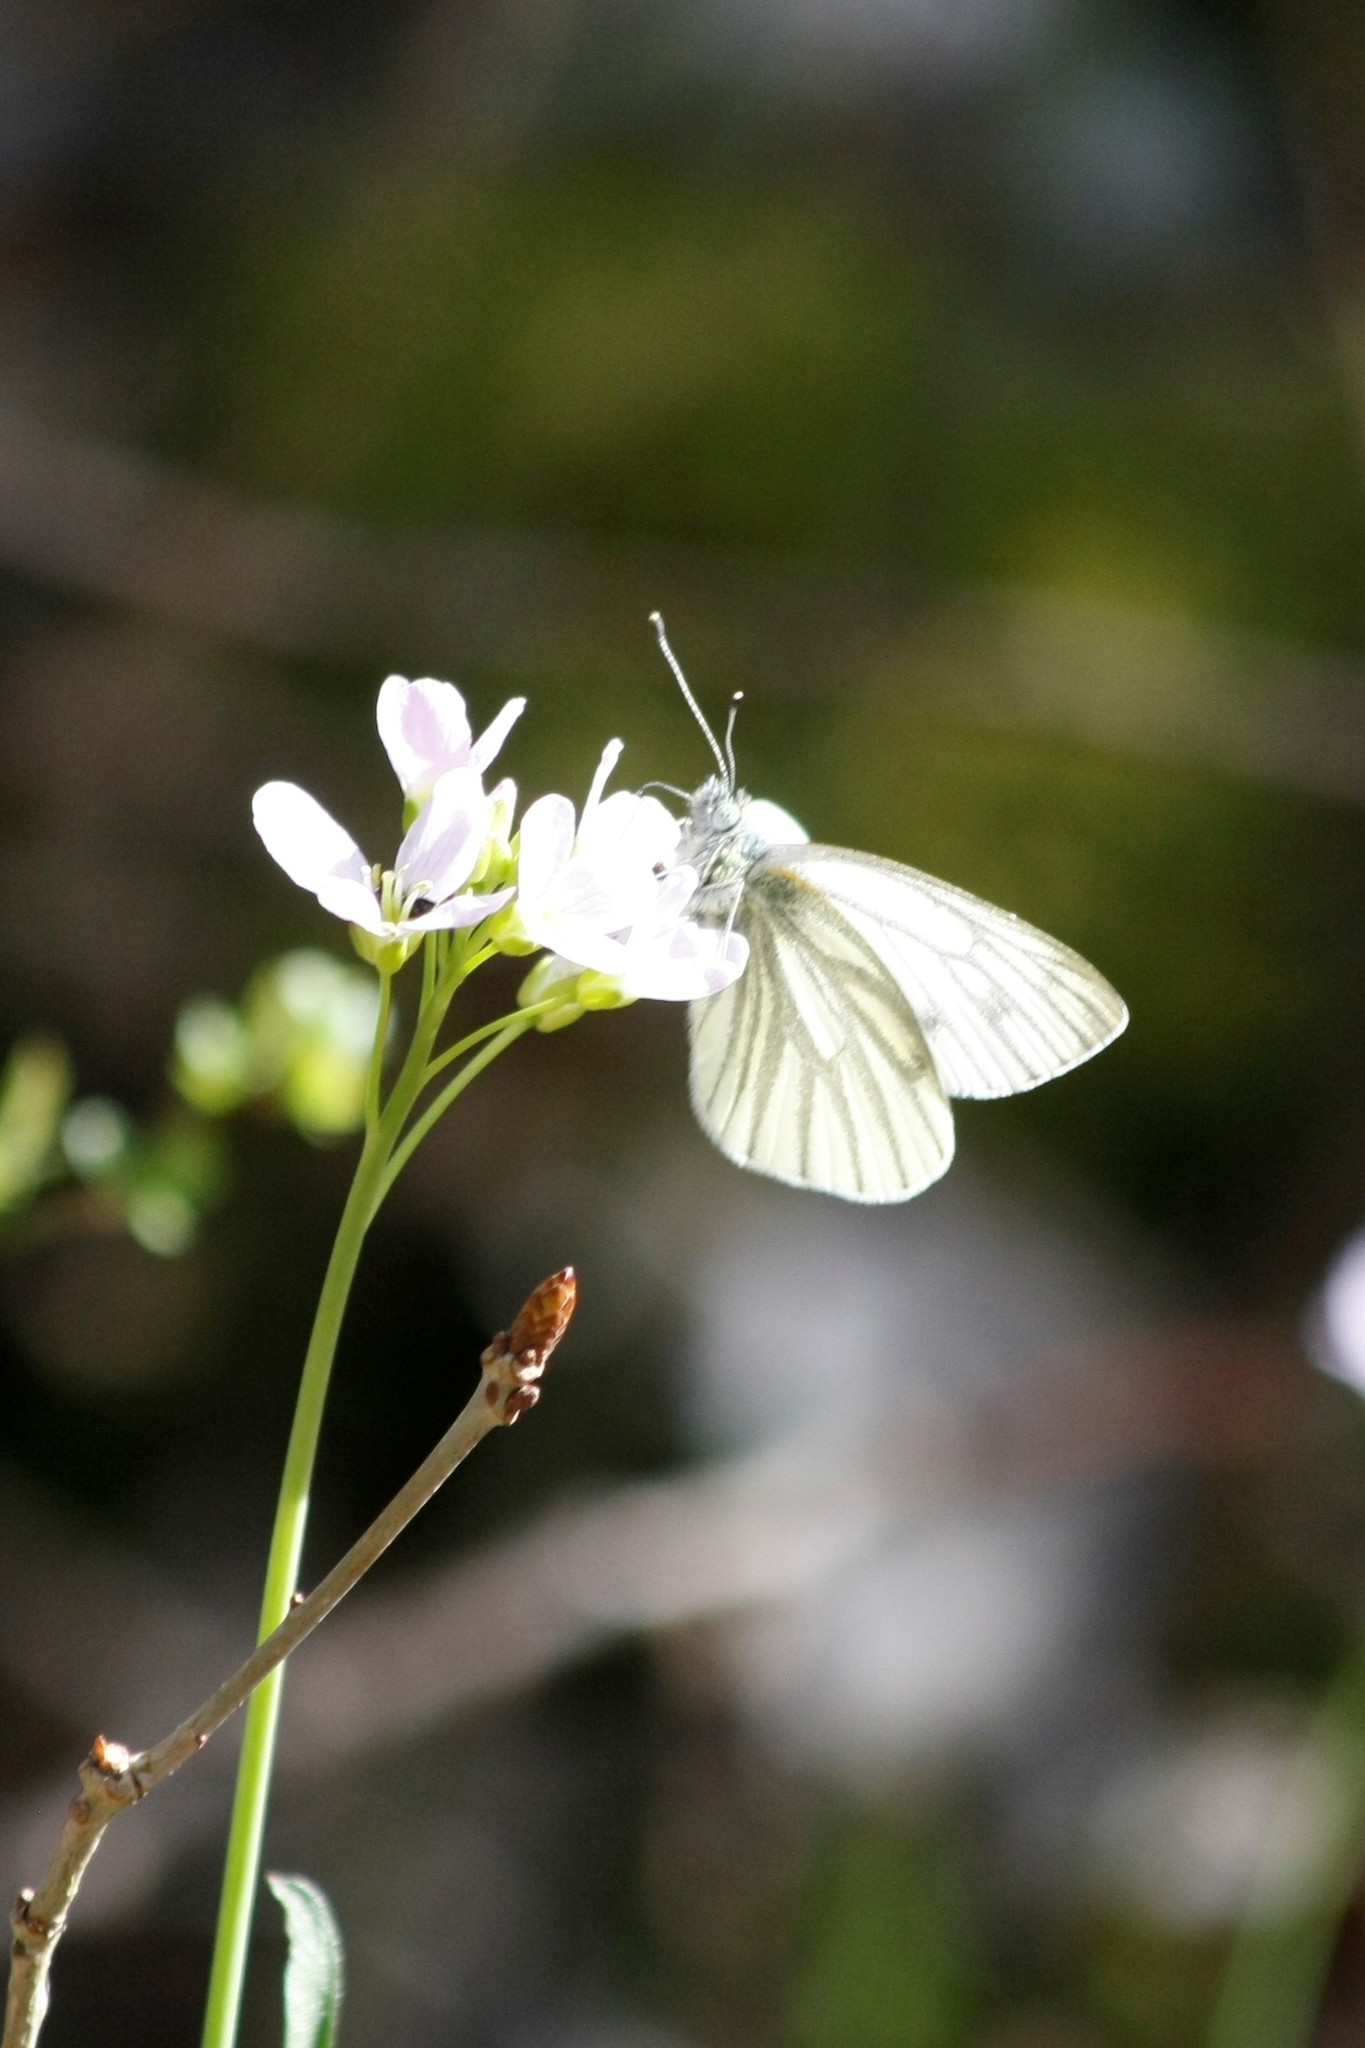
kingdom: Animalia
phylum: Arthropoda
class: Insecta
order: Lepidoptera
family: Pieridae
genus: Pieris
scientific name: Pieris napi
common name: Green-veined white
